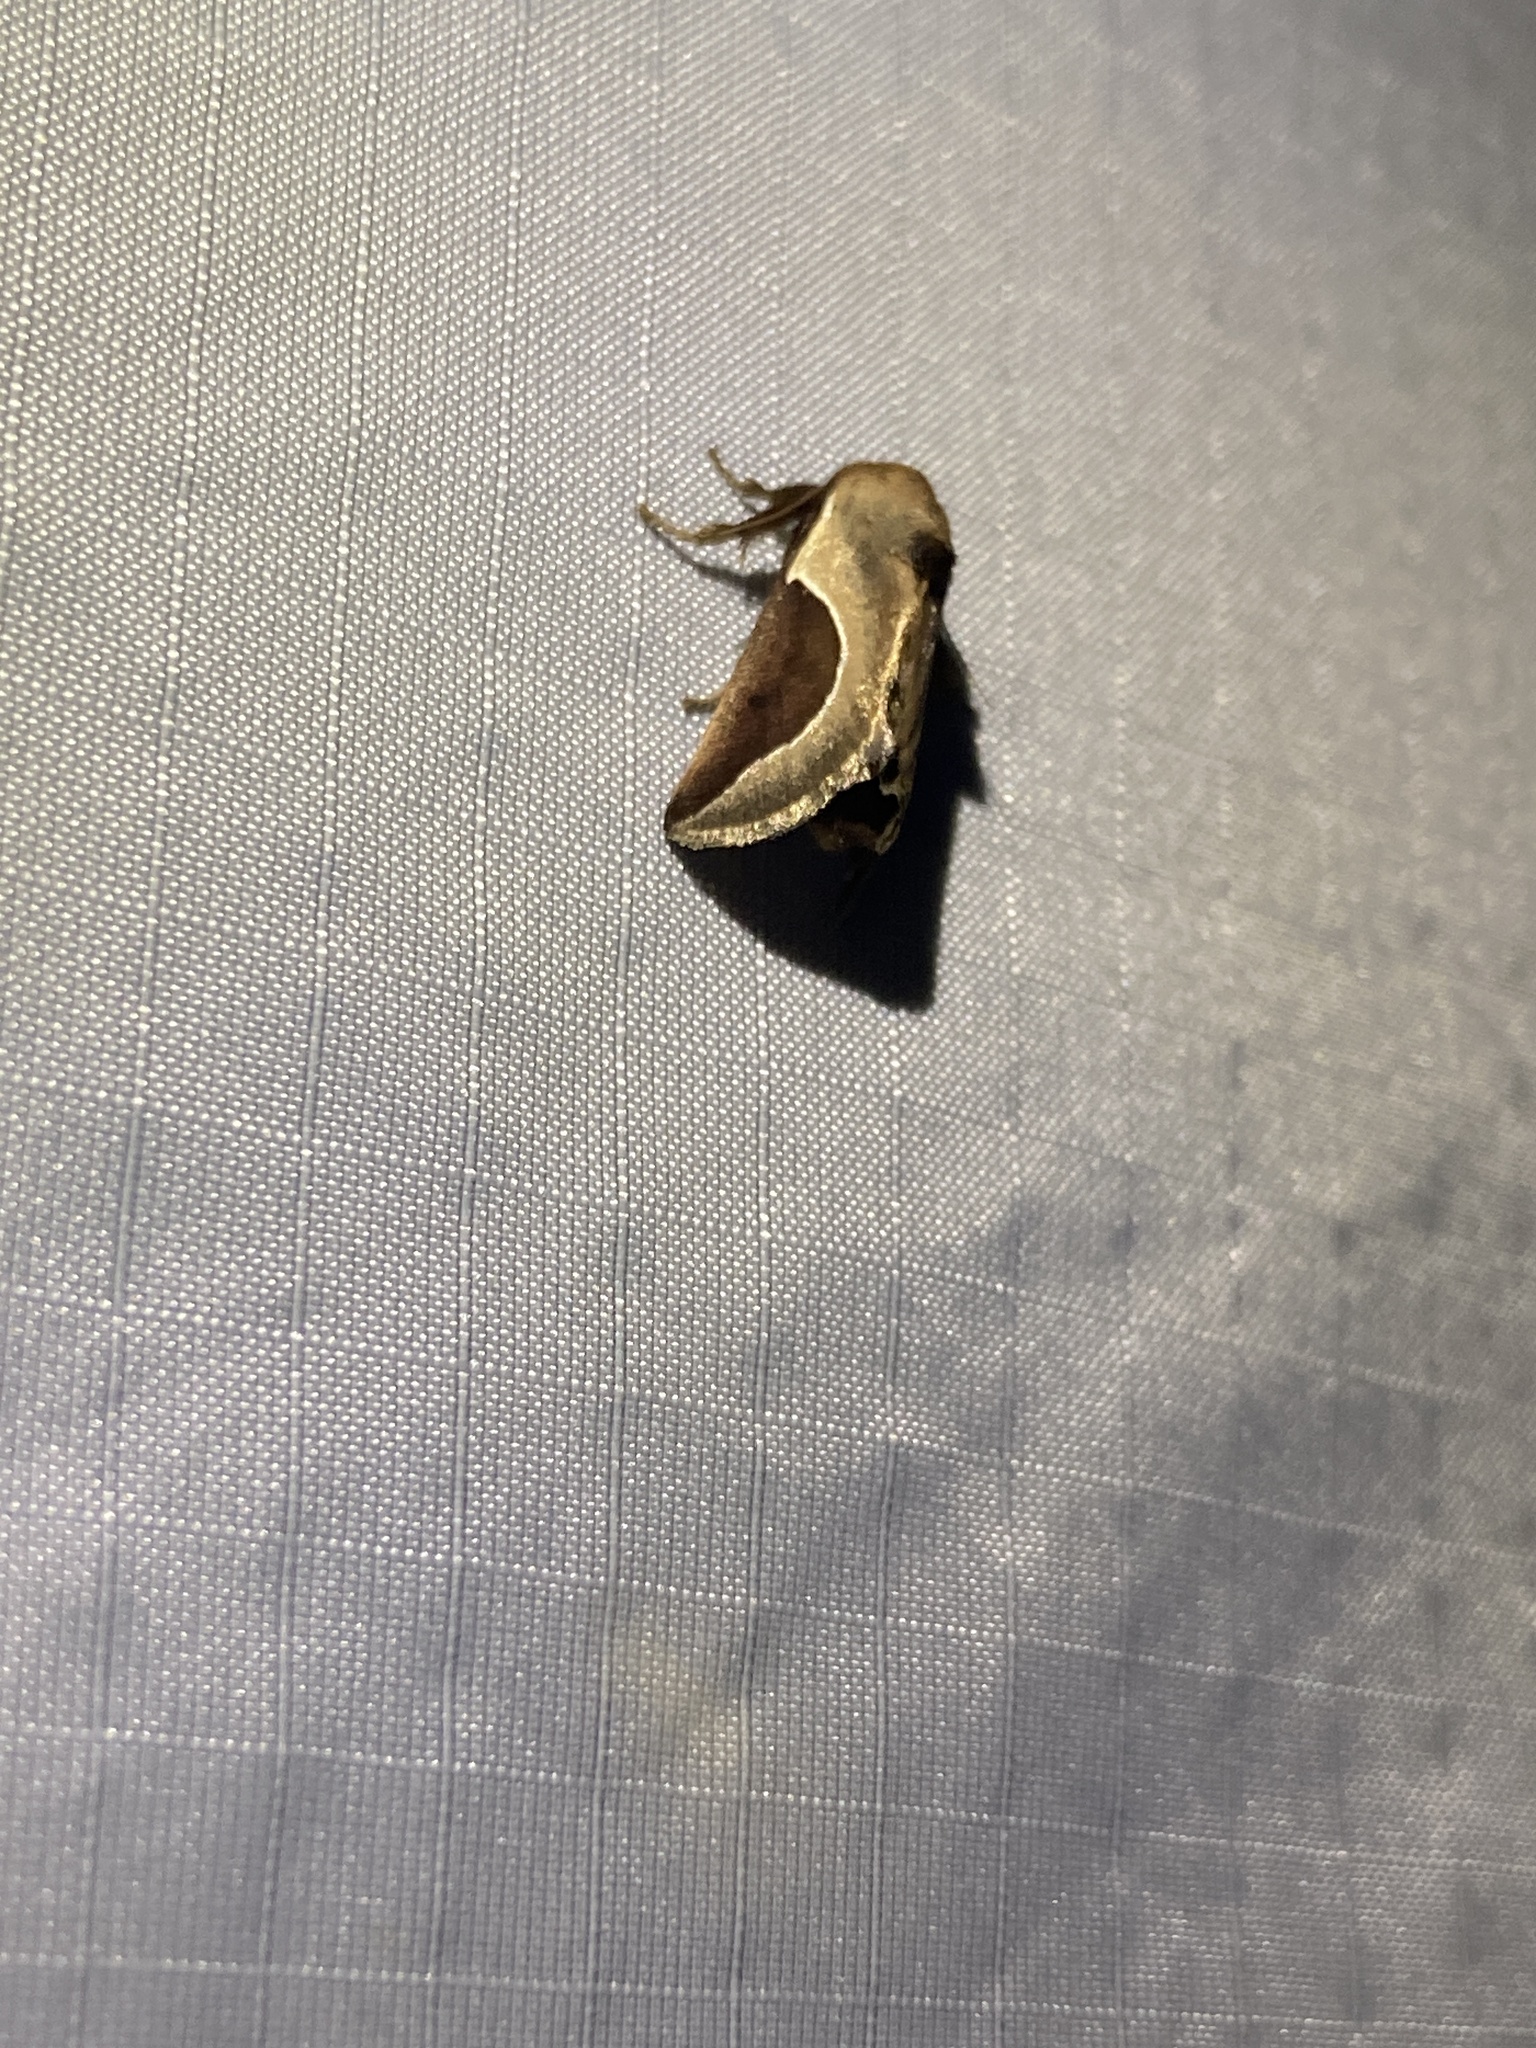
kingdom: Animalia
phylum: Arthropoda
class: Insecta
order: Lepidoptera
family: Limacodidae
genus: Prolimacodes
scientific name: Prolimacodes badia
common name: Skiff moth
